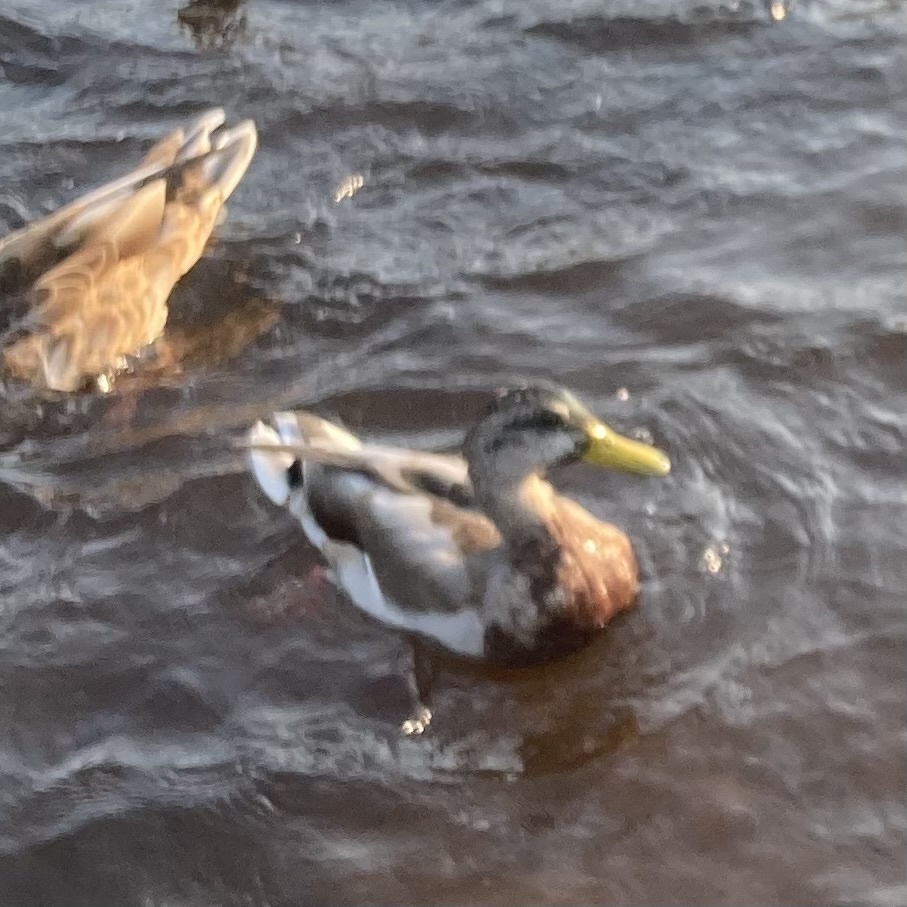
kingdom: Animalia
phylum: Chordata
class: Aves
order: Anseriformes
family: Anatidae
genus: Anas
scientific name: Anas platyrhynchos
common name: Mallard
